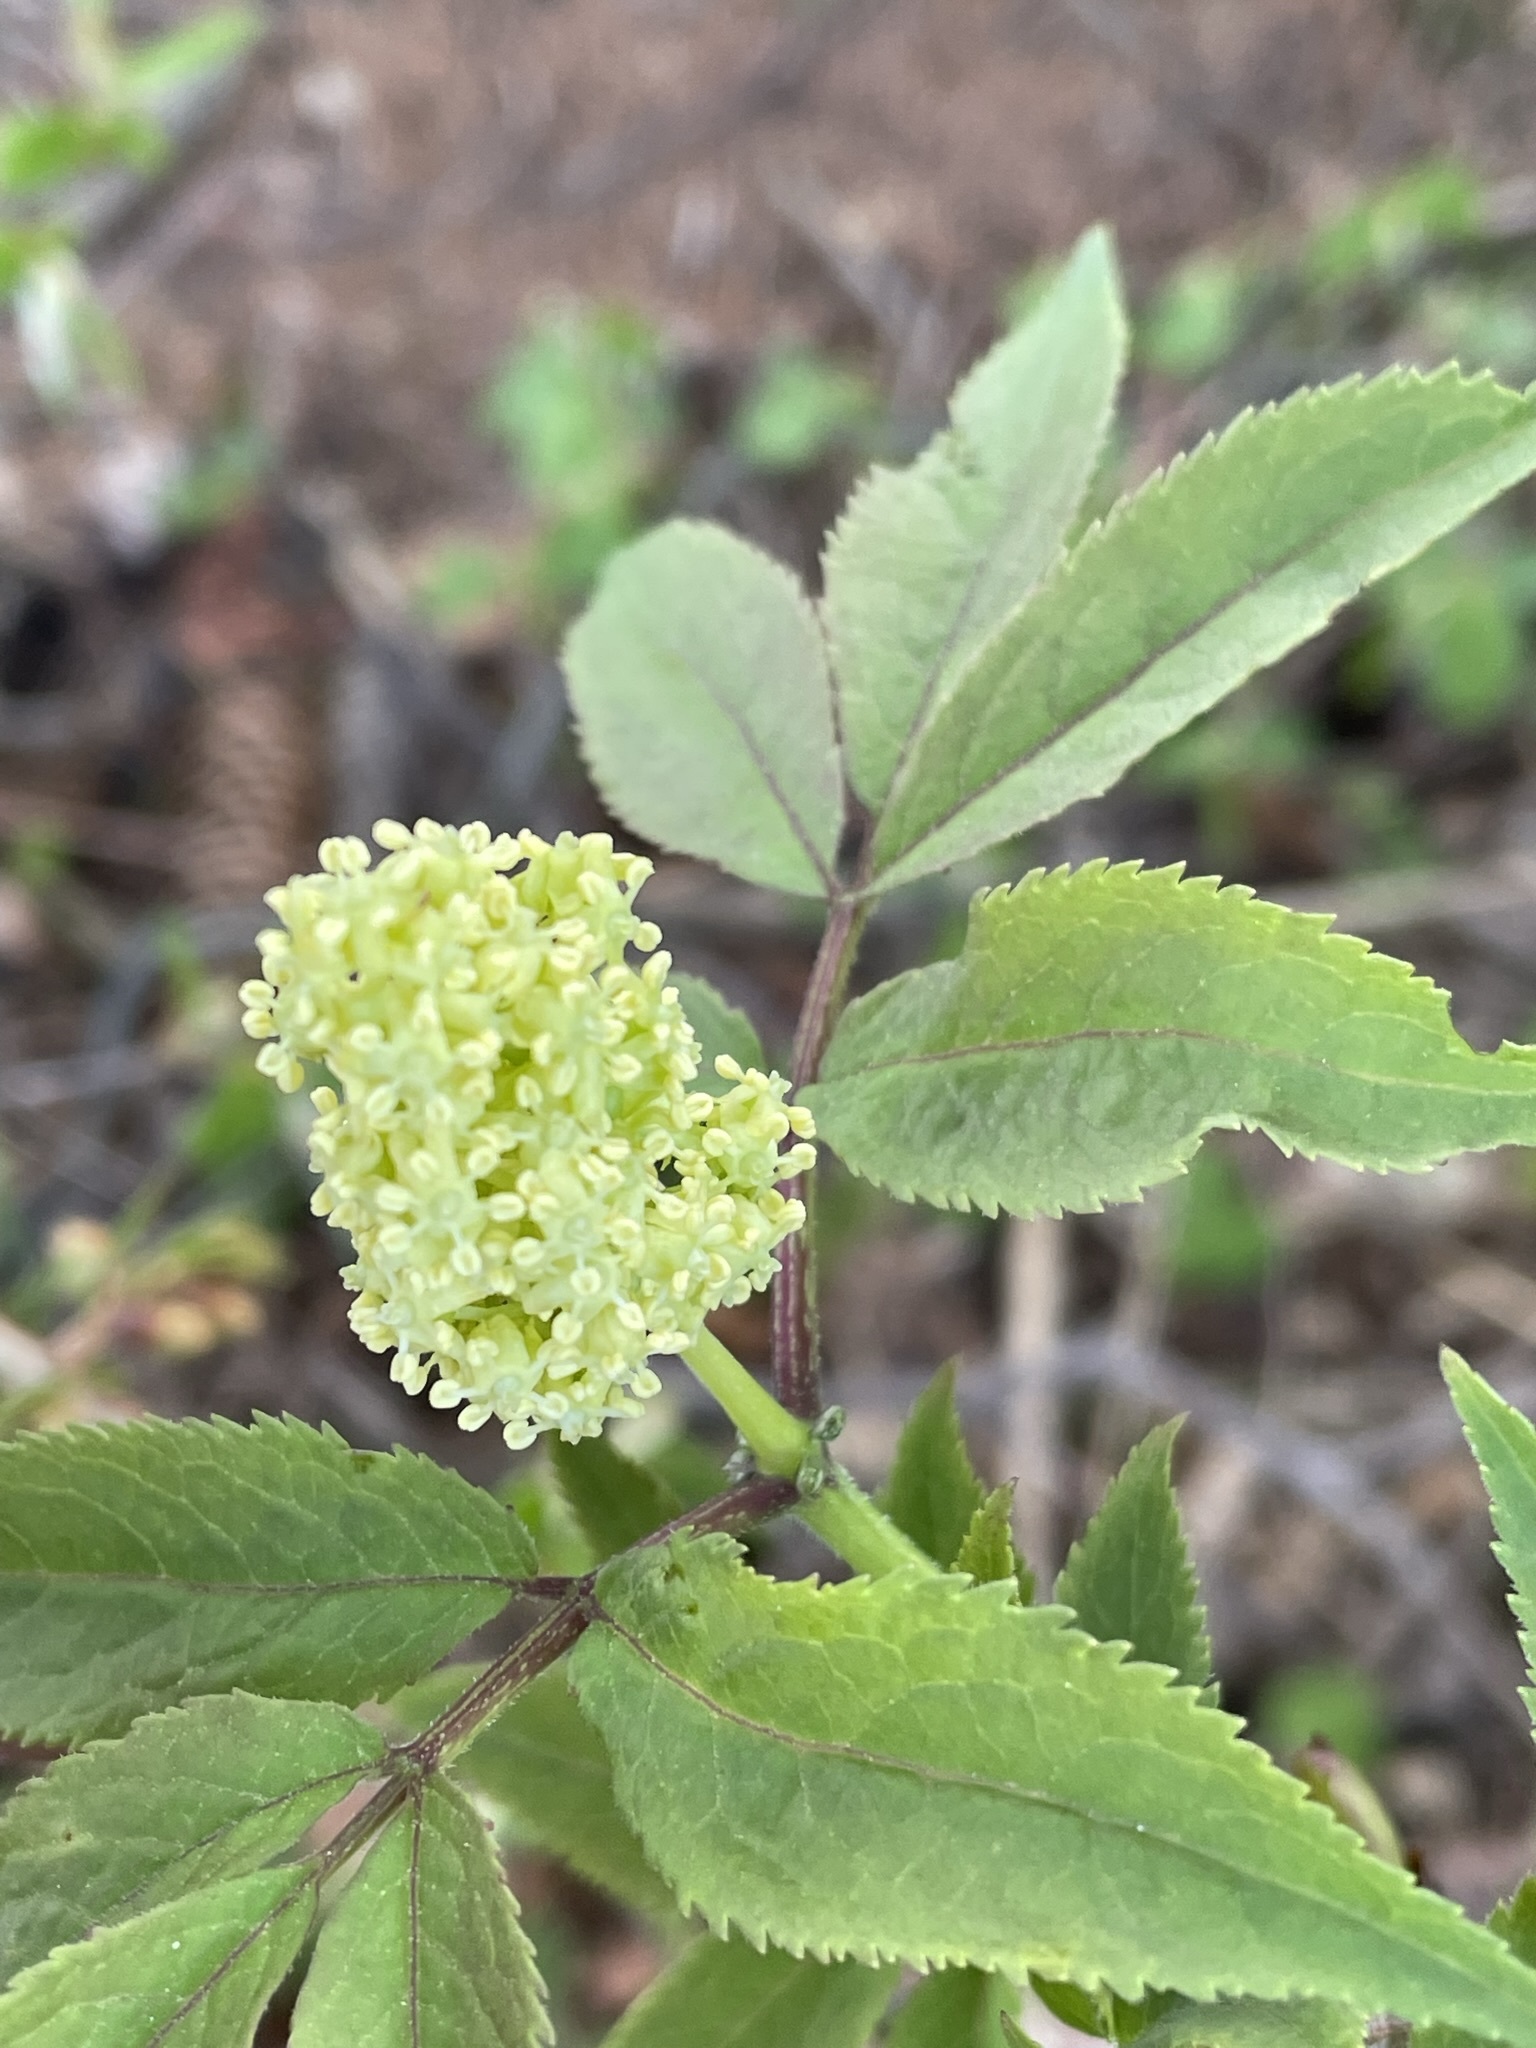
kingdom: Plantae
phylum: Tracheophyta
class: Magnoliopsida
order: Dipsacales
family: Viburnaceae
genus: Sambucus
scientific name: Sambucus racemosa
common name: Red-berried elder
